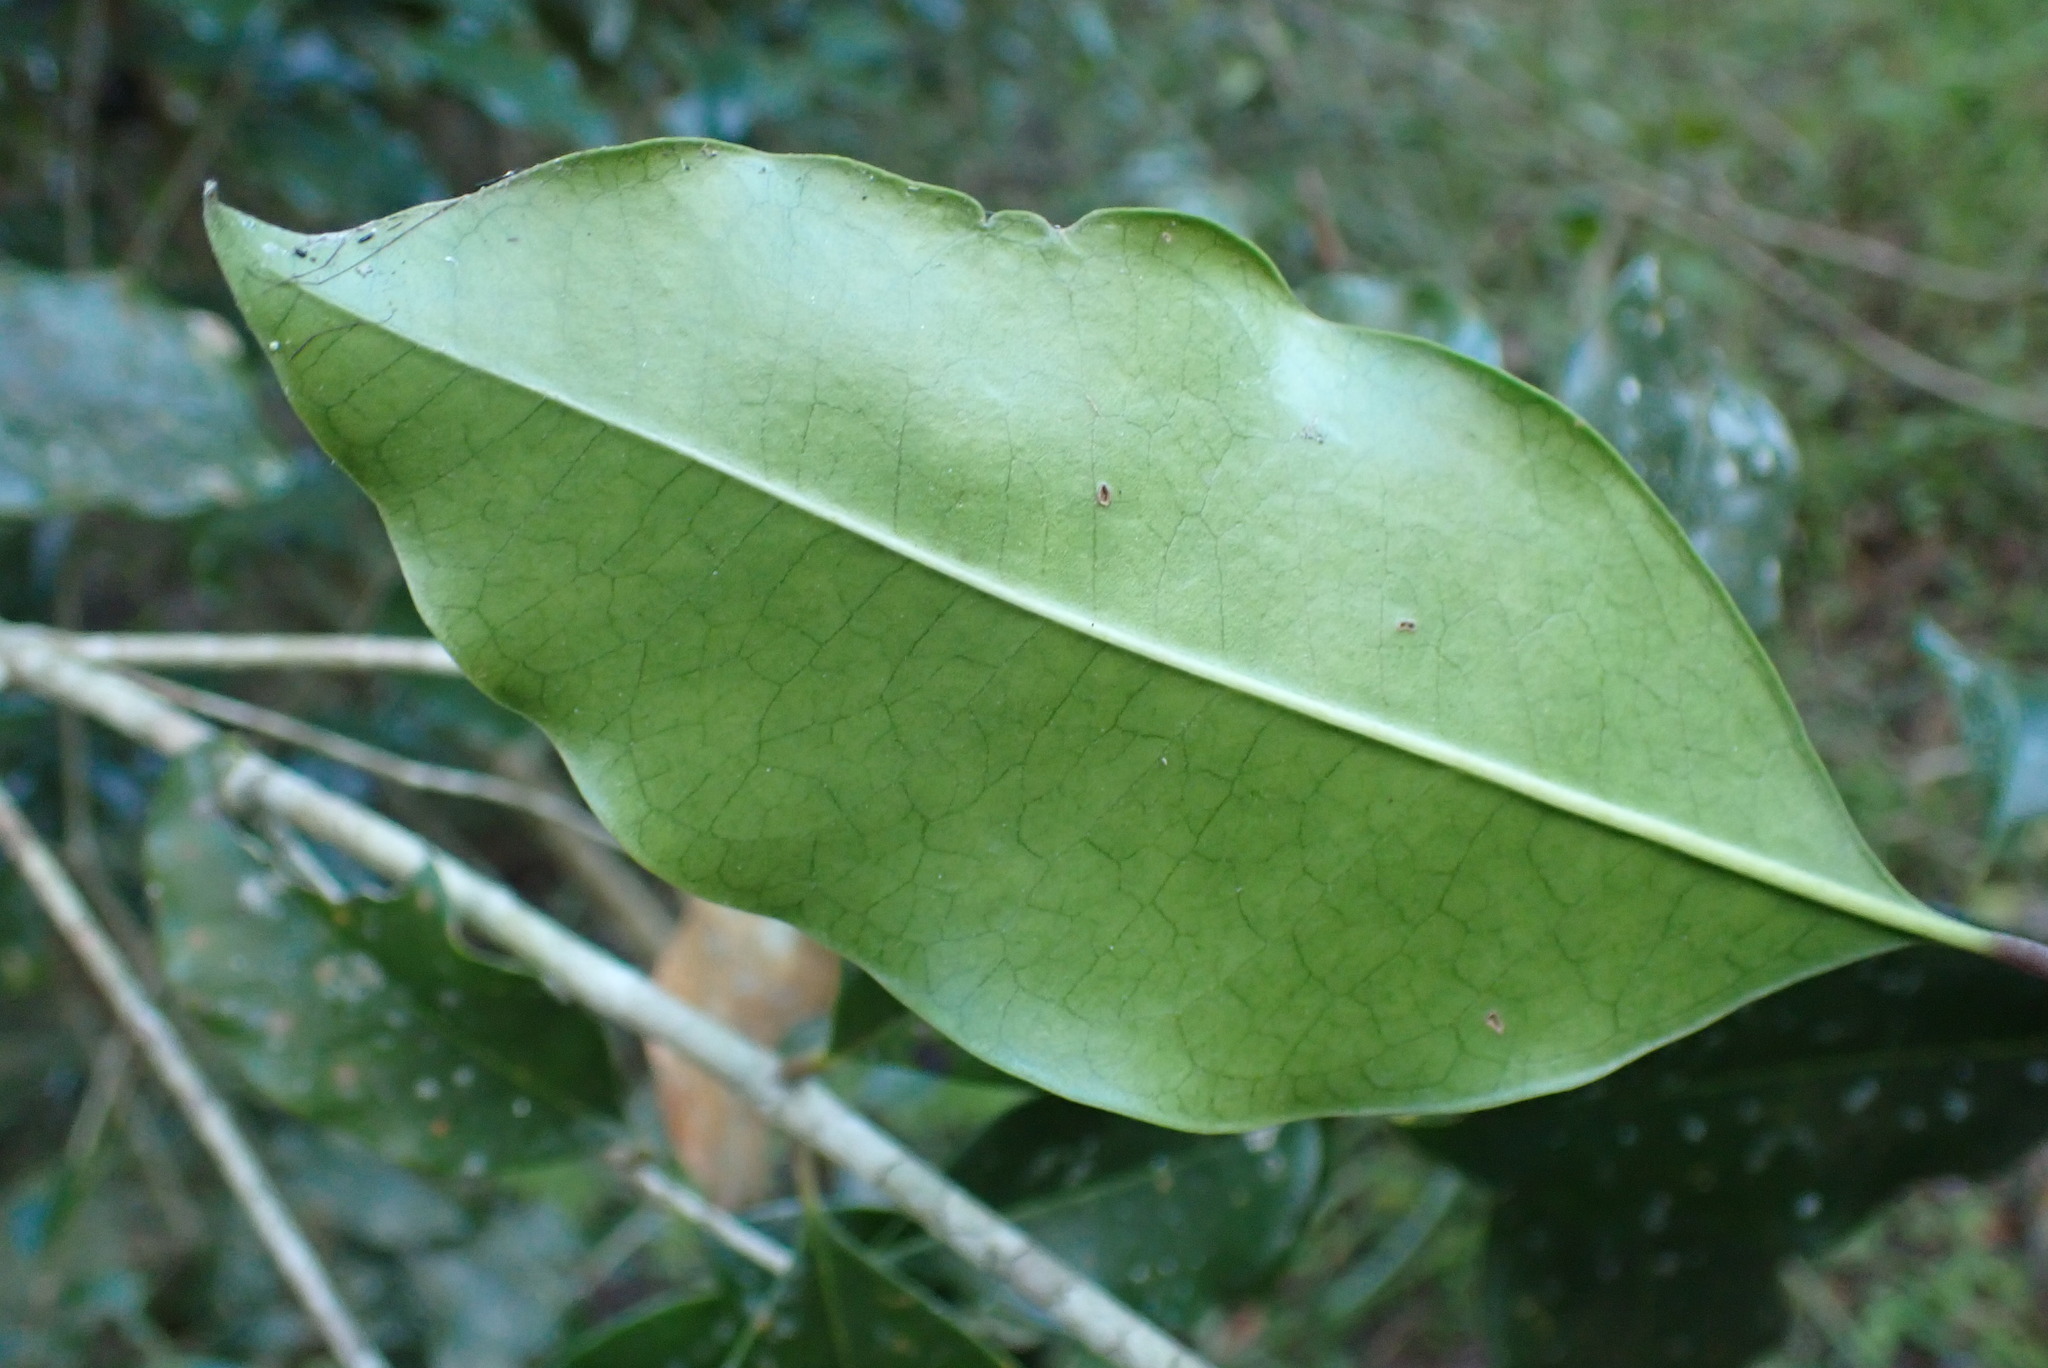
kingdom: Plantae
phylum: Tracheophyta
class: Magnoliopsida
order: Lamiales
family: Oleaceae
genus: Olea
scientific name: Olea capensis
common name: Black ironwood
